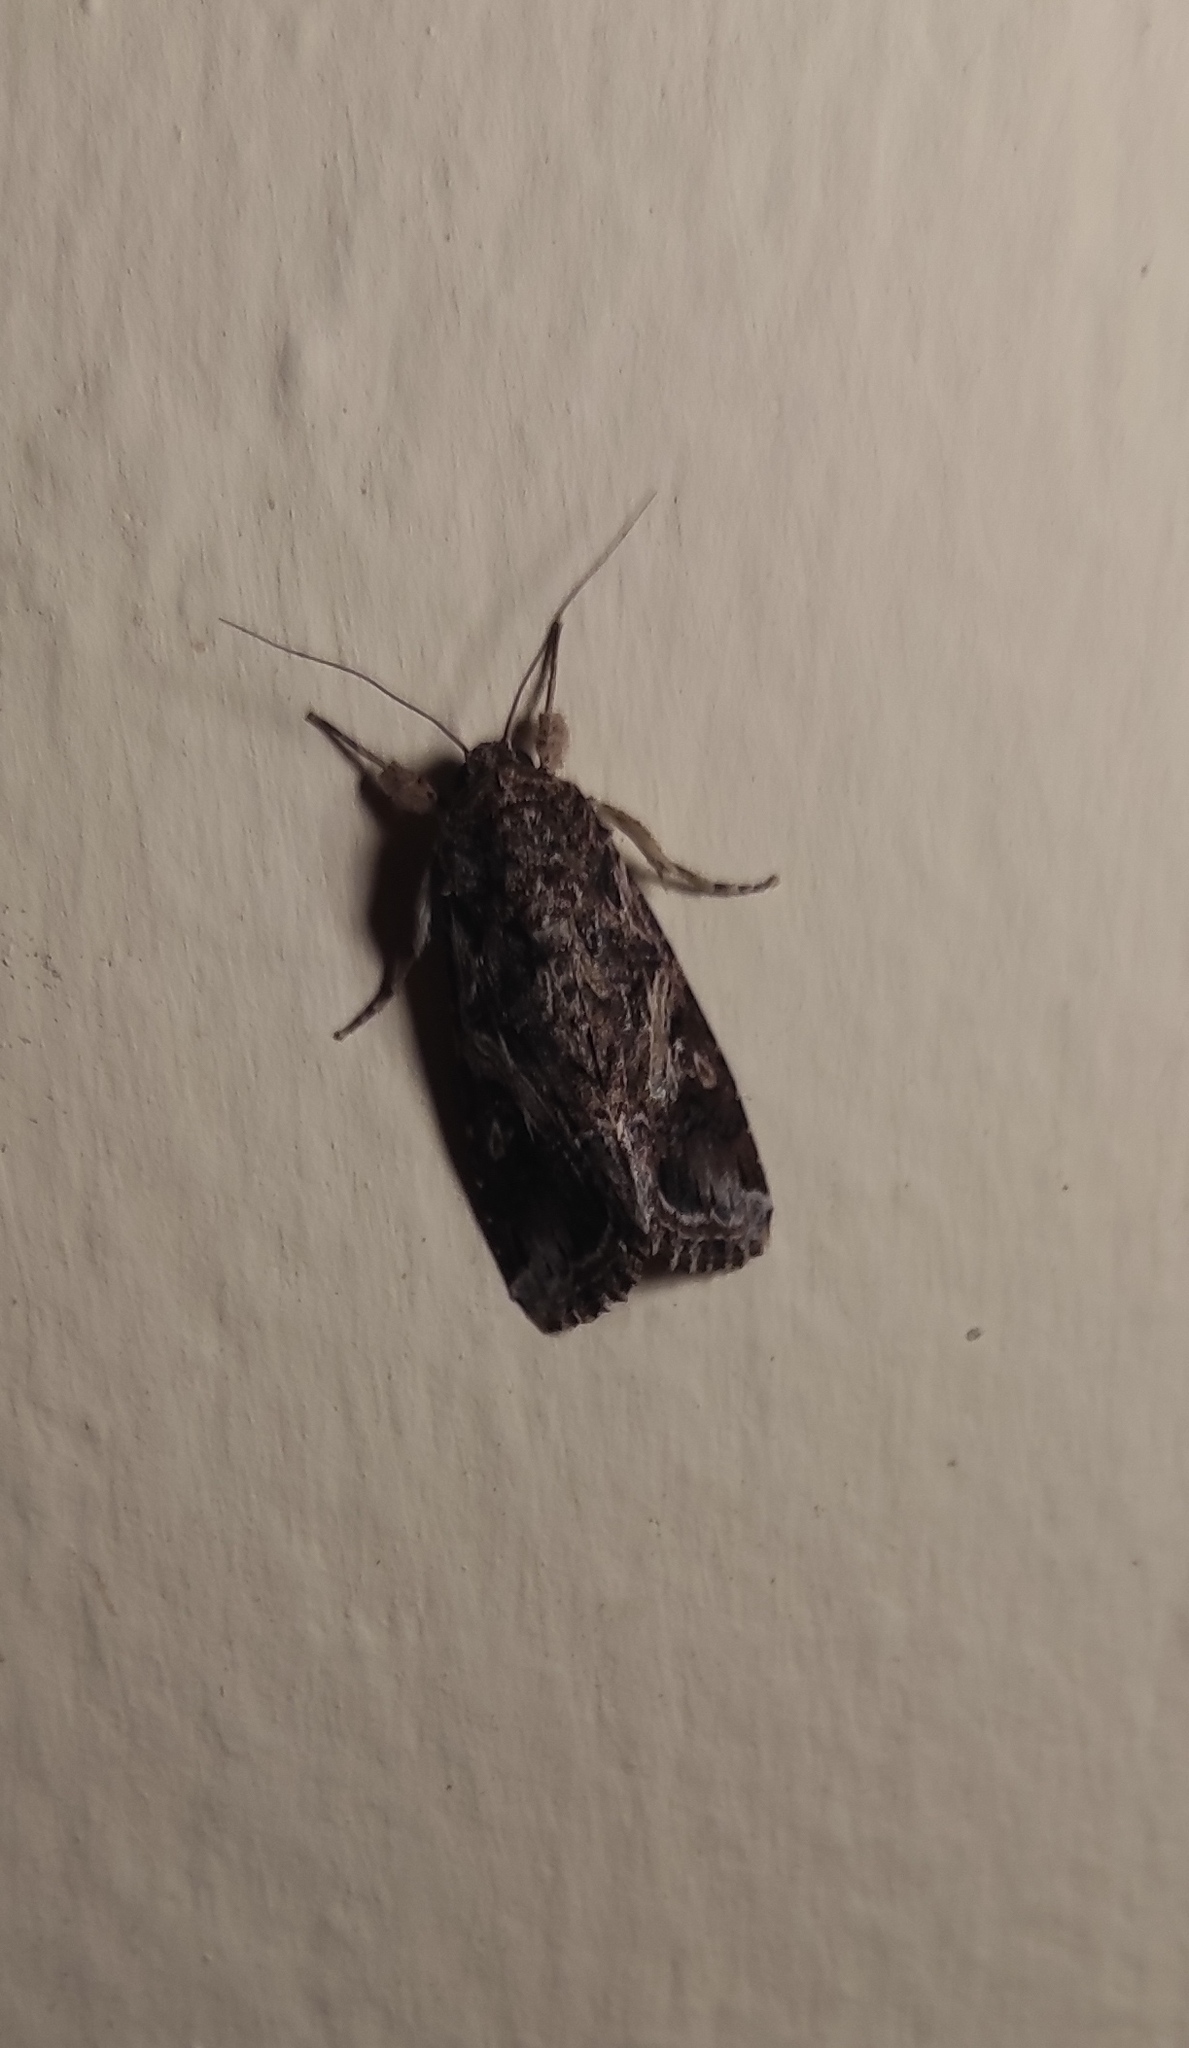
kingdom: Animalia
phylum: Arthropoda
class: Insecta
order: Lepidoptera
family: Noctuidae
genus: Spodoptera
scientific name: Spodoptera ornithogalli
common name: Yellow-striped armyworm
